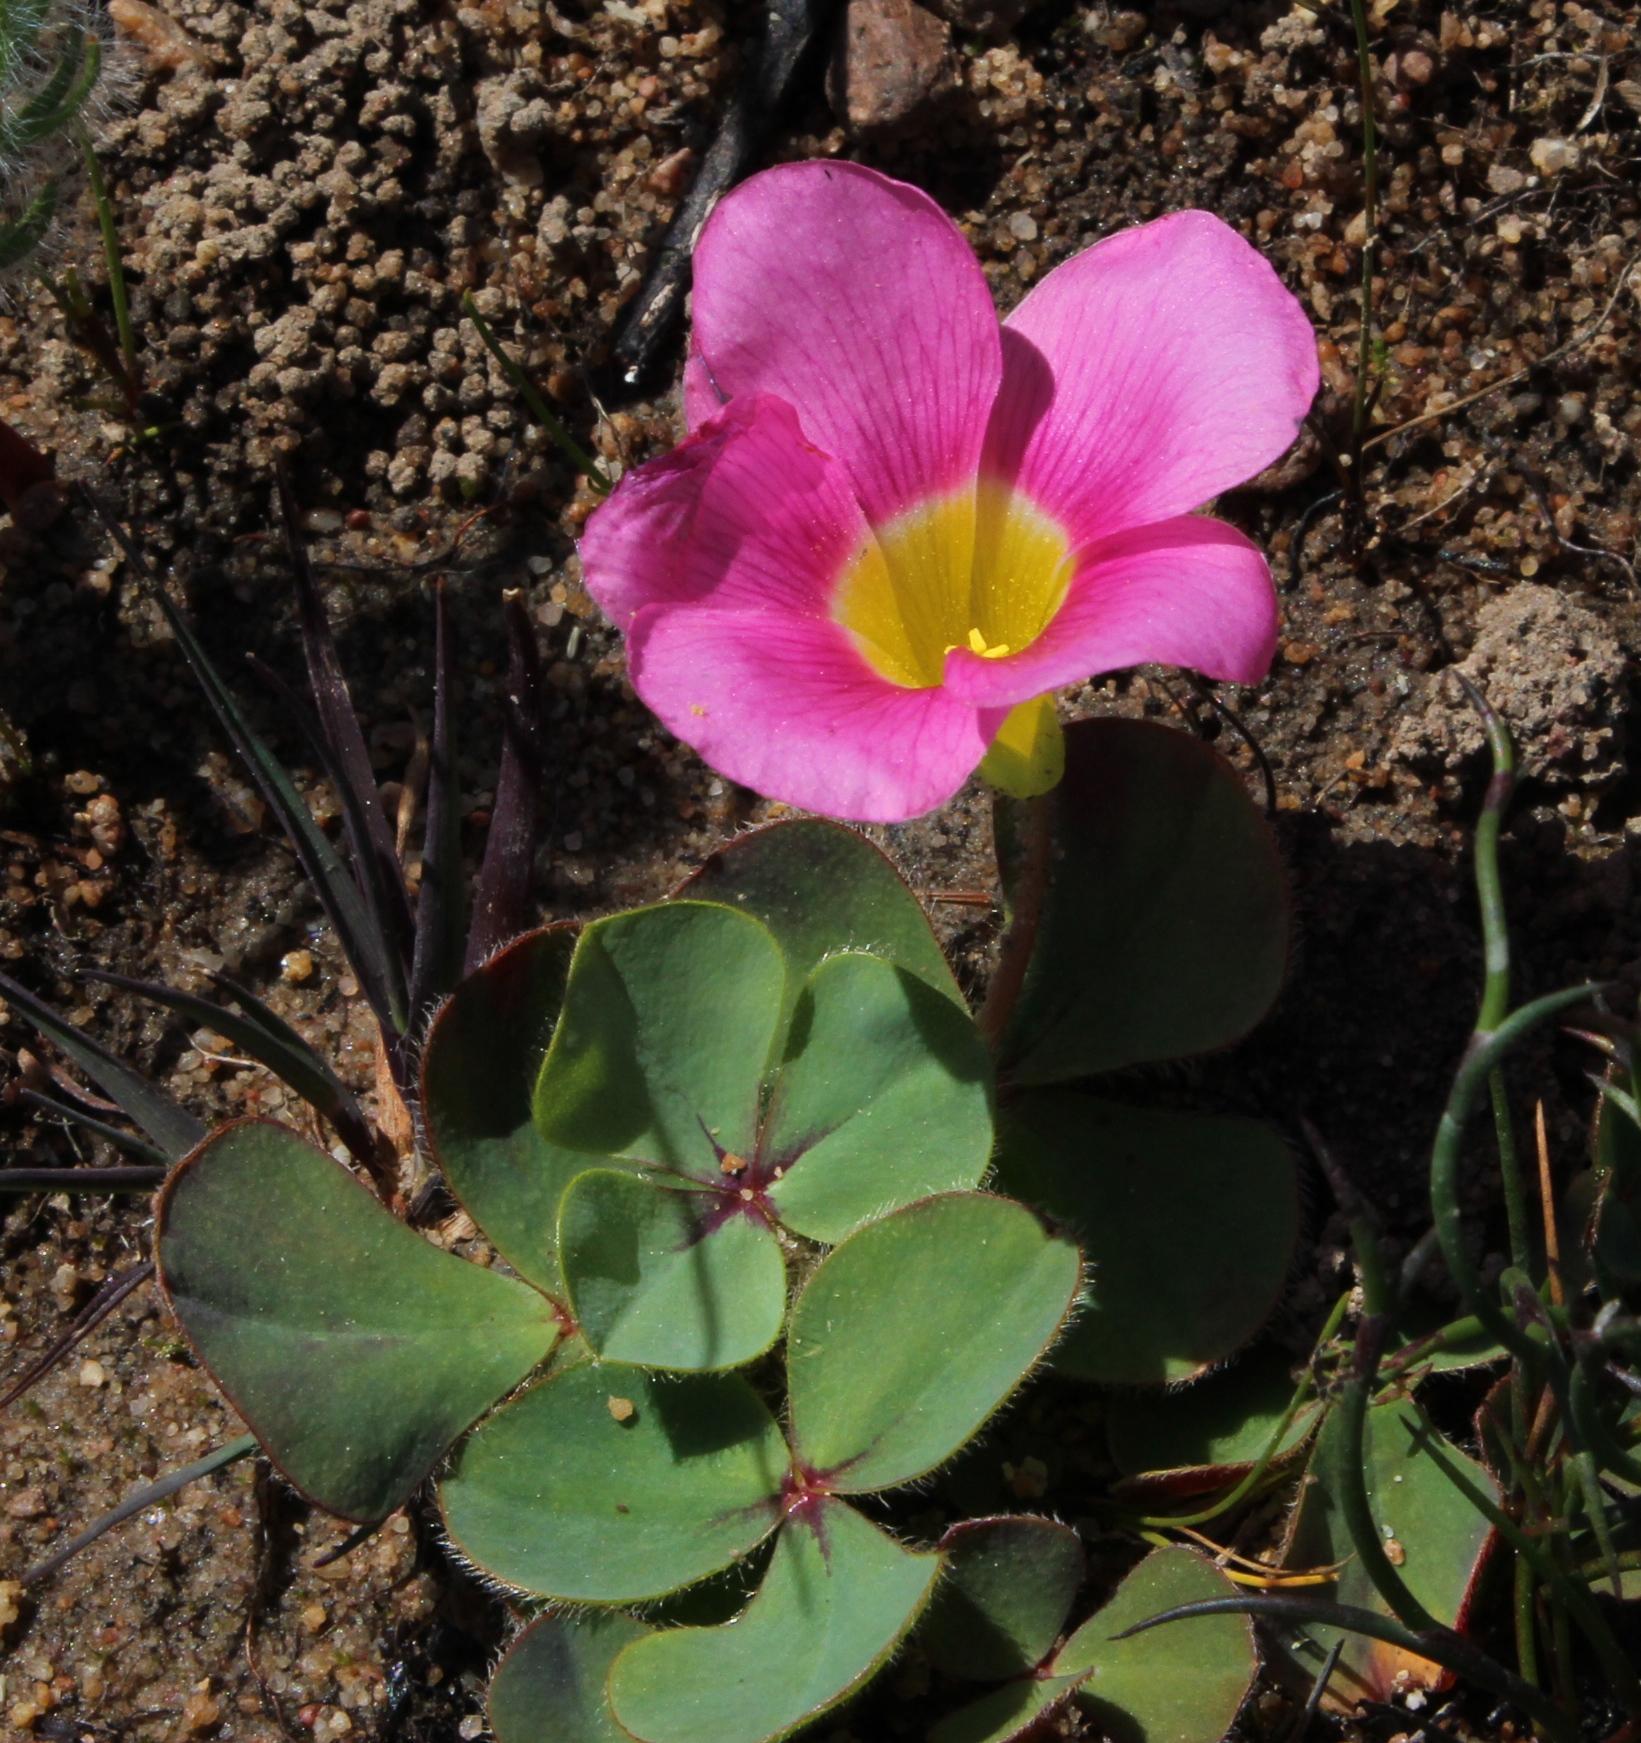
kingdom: Plantae
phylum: Tracheophyta
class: Magnoliopsida
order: Oxalidales
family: Oxalidaceae
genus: Oxalis
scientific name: Oxalis purpurea
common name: Purple woodsorrel
